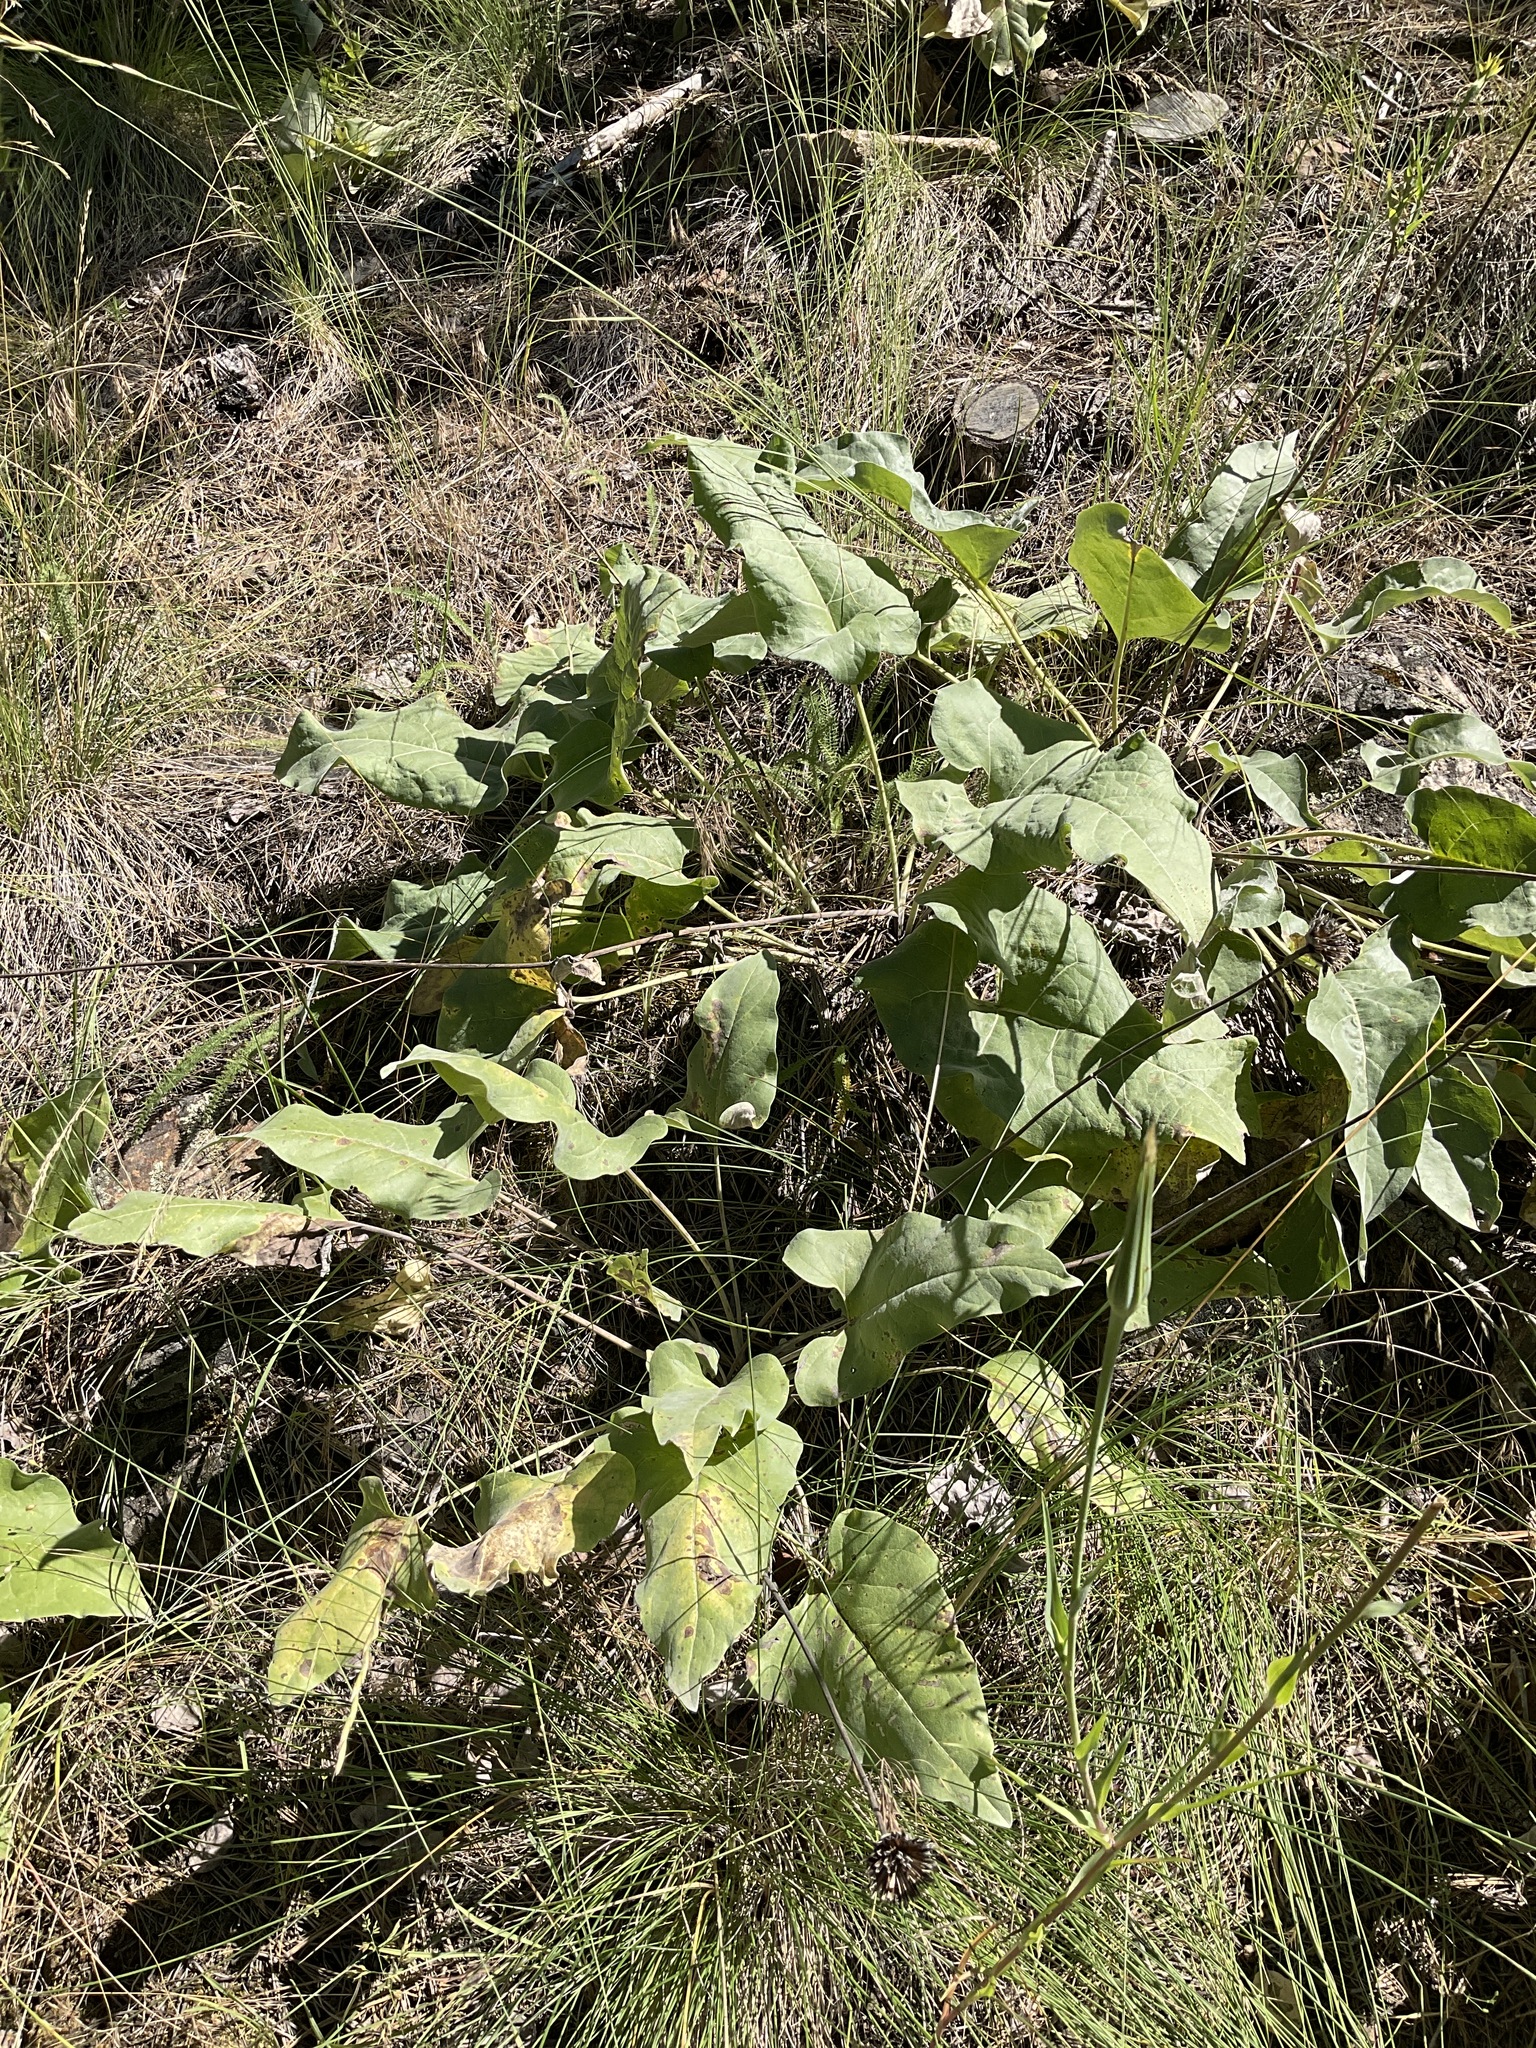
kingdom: Plantae
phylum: Tracheophyta
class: Magnoliopsida
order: Asterales
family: Asteraceae
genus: Wyethia
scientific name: Wyethia sagittata
